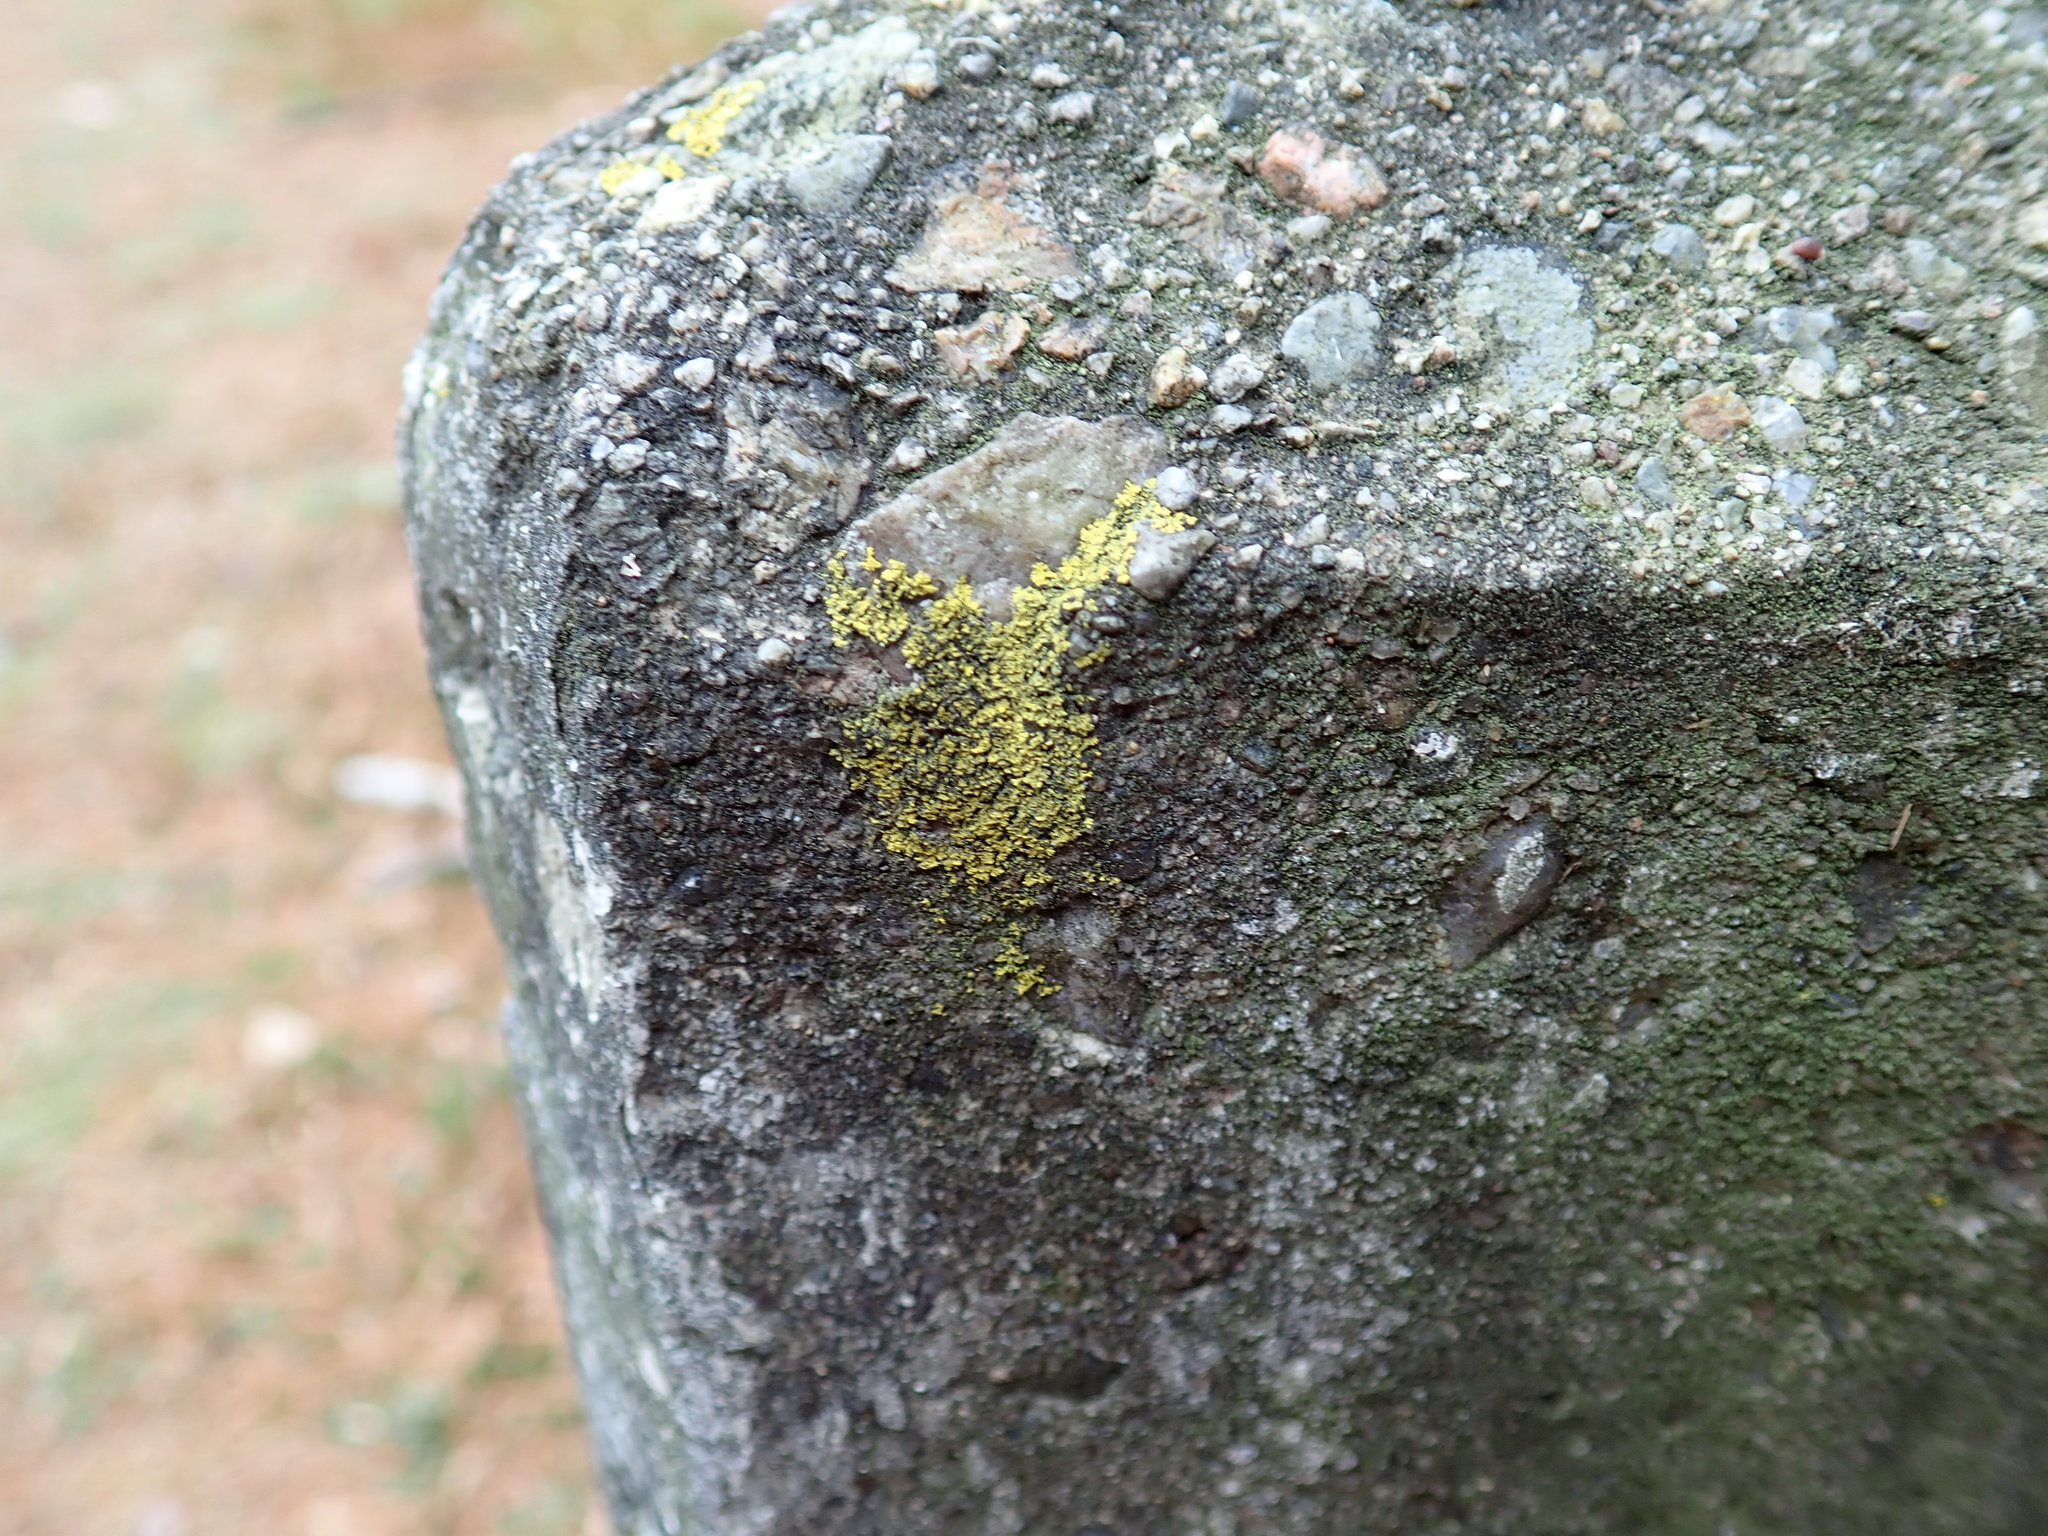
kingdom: Fungi
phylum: Ascomycota
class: Candelariomycetes
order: Candelariales
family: Candelariaceae
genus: Candelaria
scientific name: Candelaria concolor
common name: Candleflame lichen
